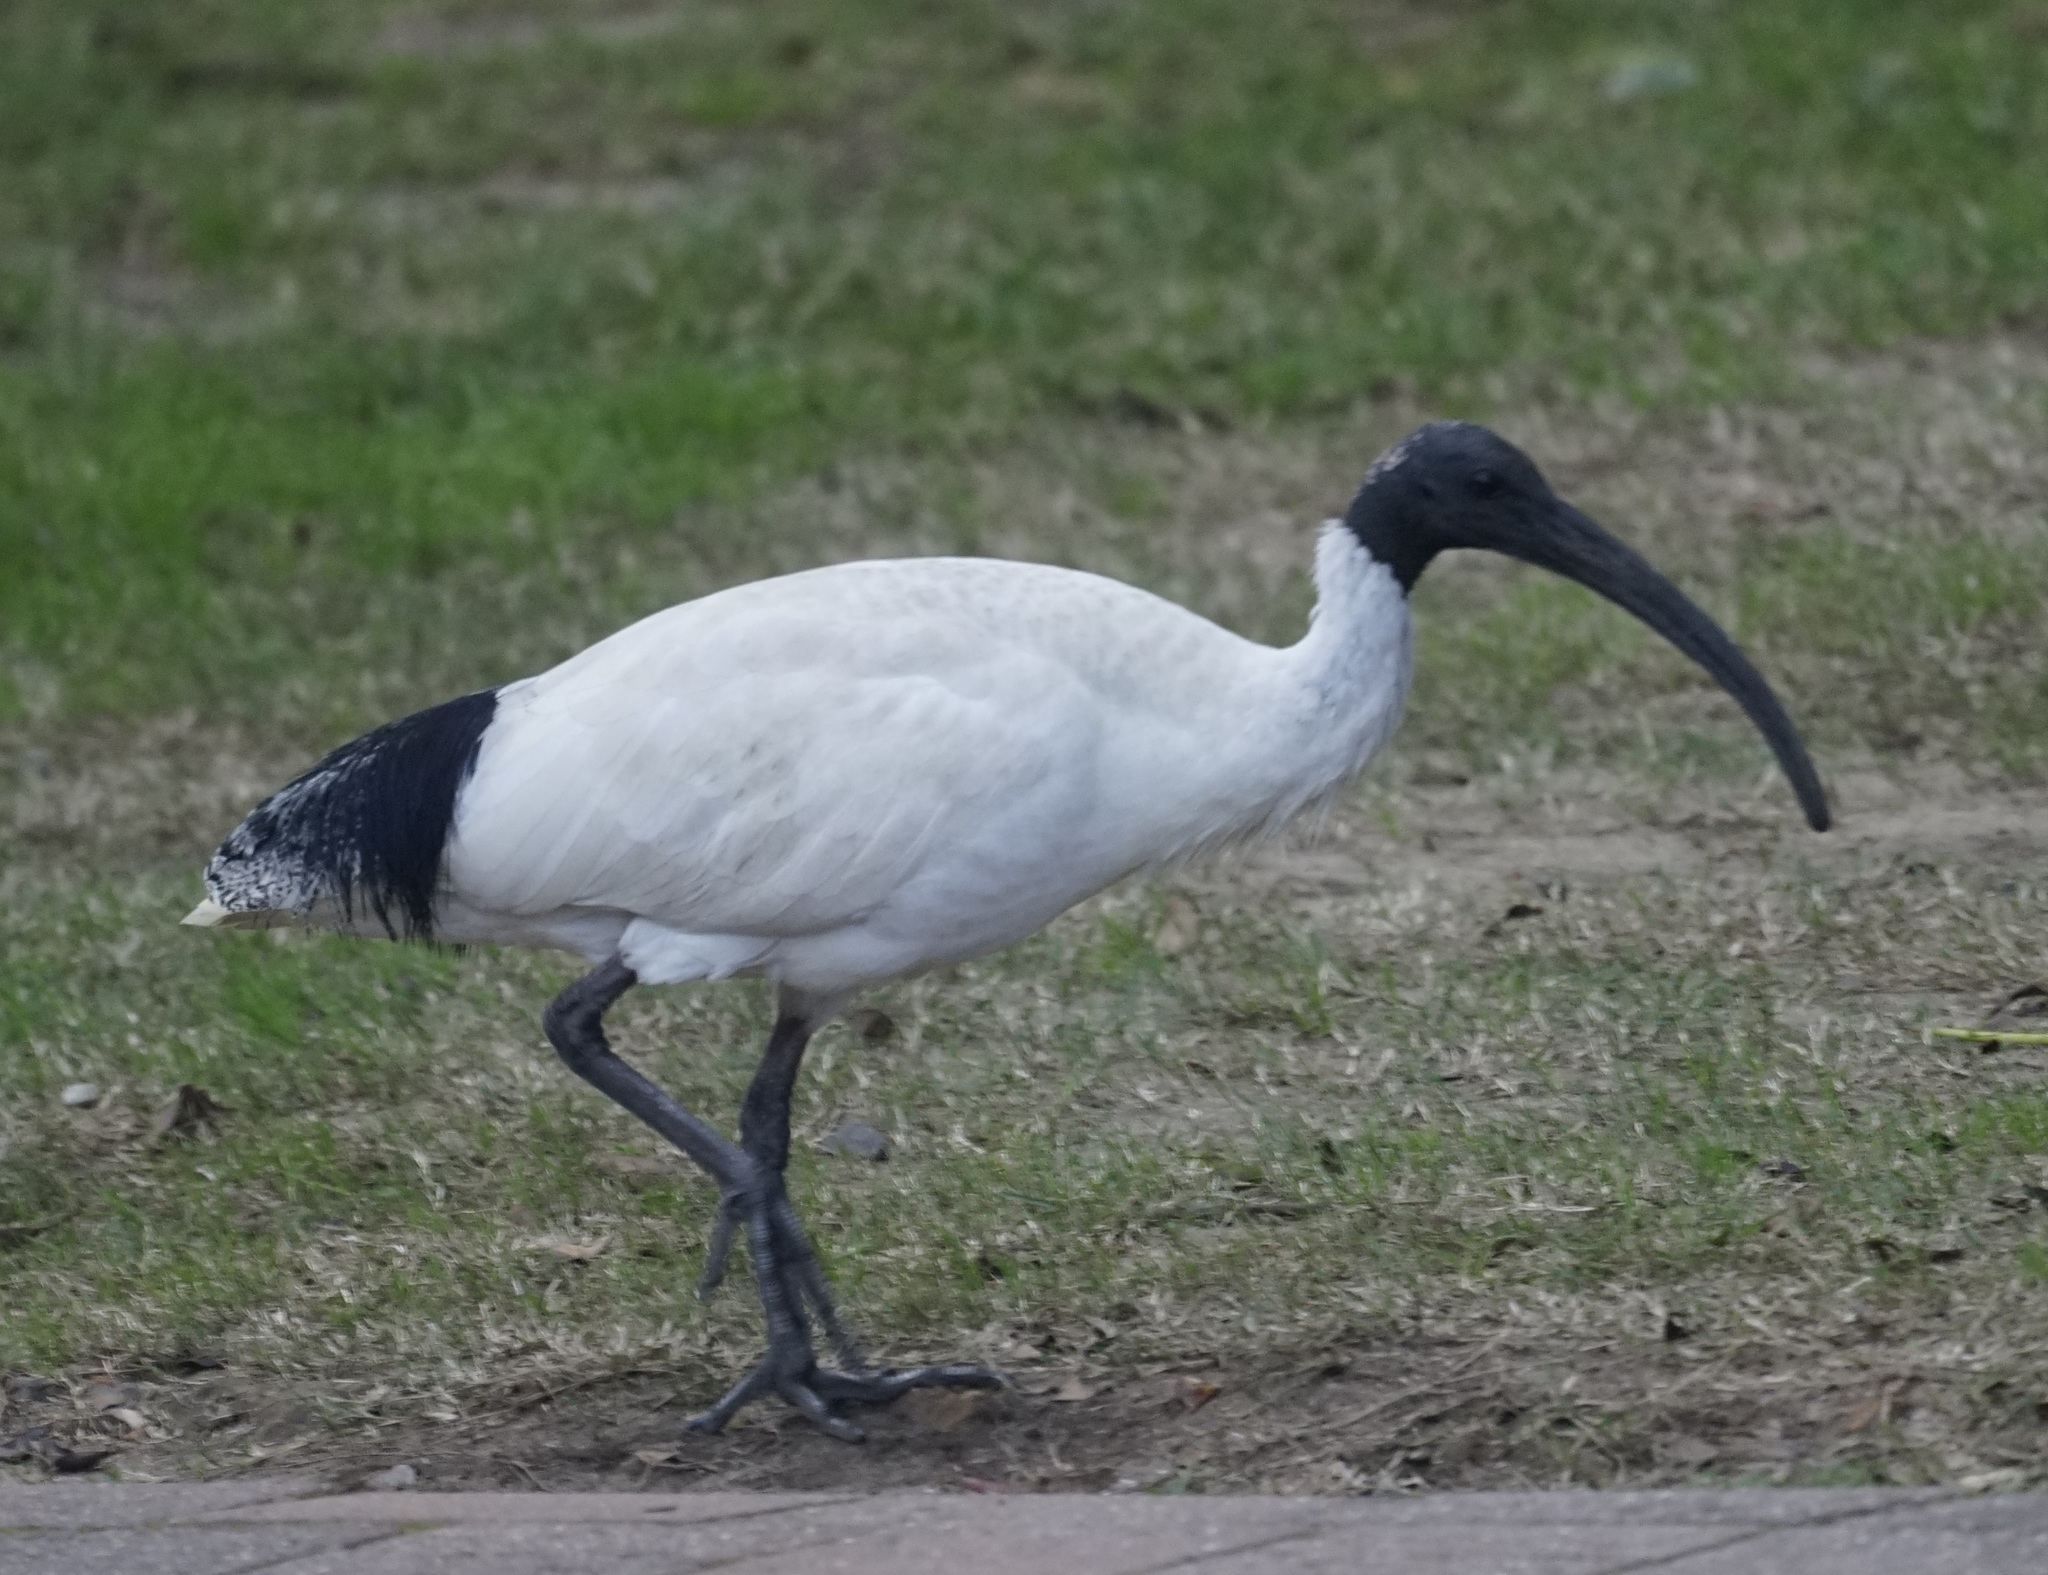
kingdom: Animalia
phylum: Chordata
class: Aves
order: Pelecaniformes
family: Threskiornithidae
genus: Threskiornis
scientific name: Threskiornis molucca
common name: Australian white ibis
